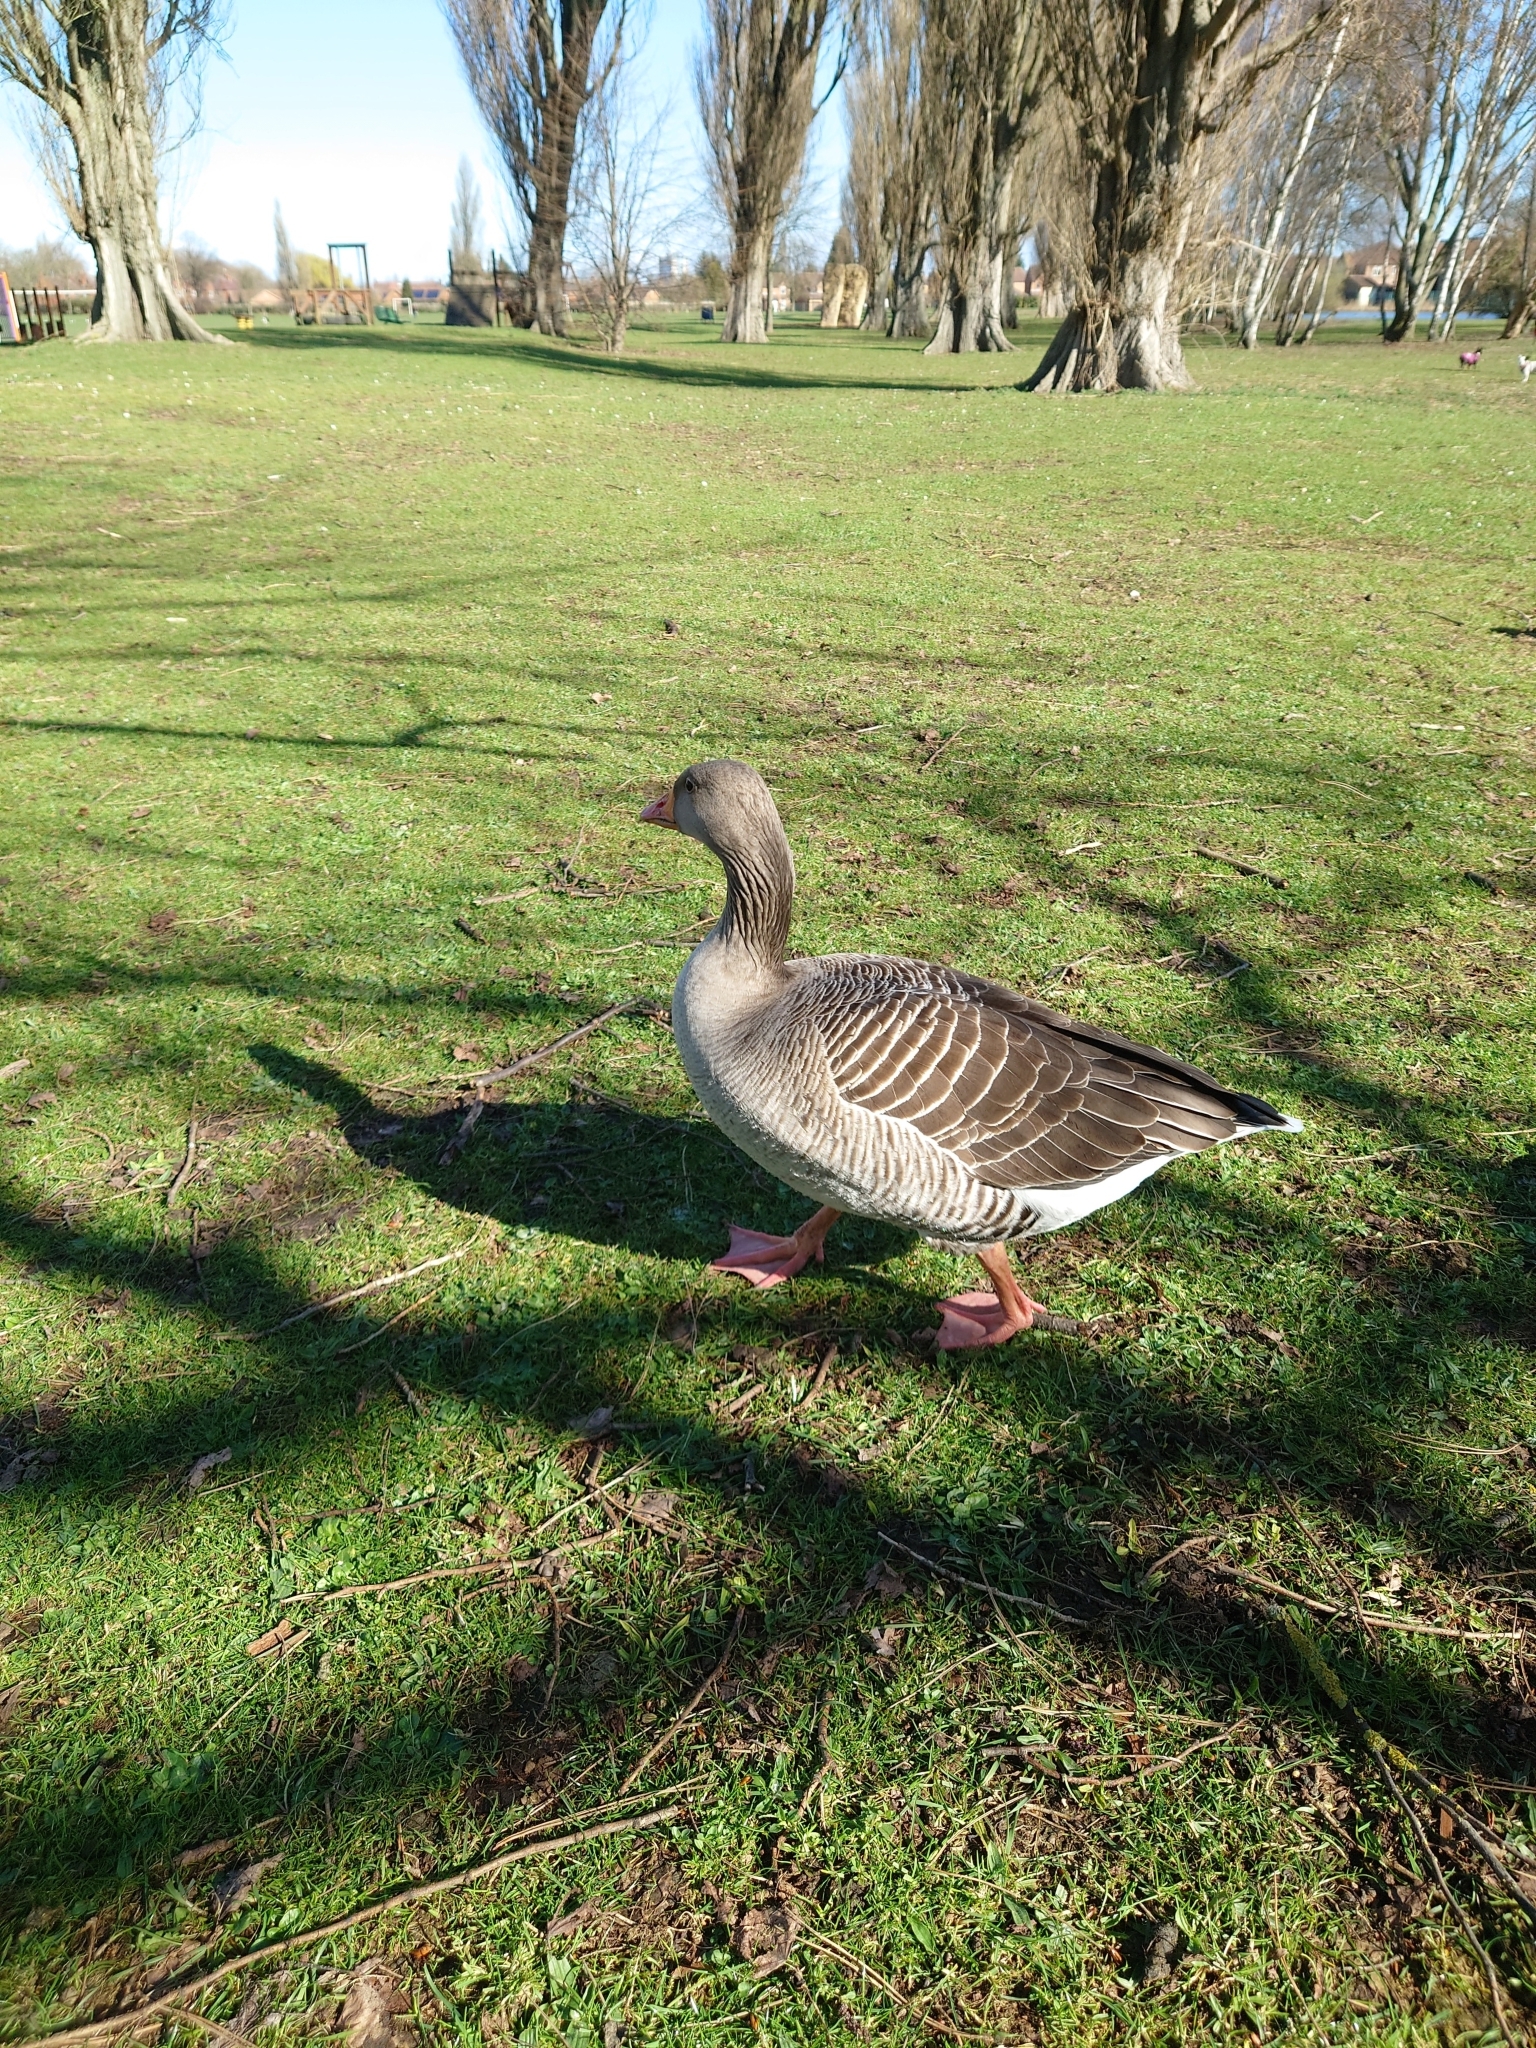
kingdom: Animalia
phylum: Chordata
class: Aves
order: Anseriformes
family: Anatidae
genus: Anser
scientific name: Anser anser
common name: Greylag goose
